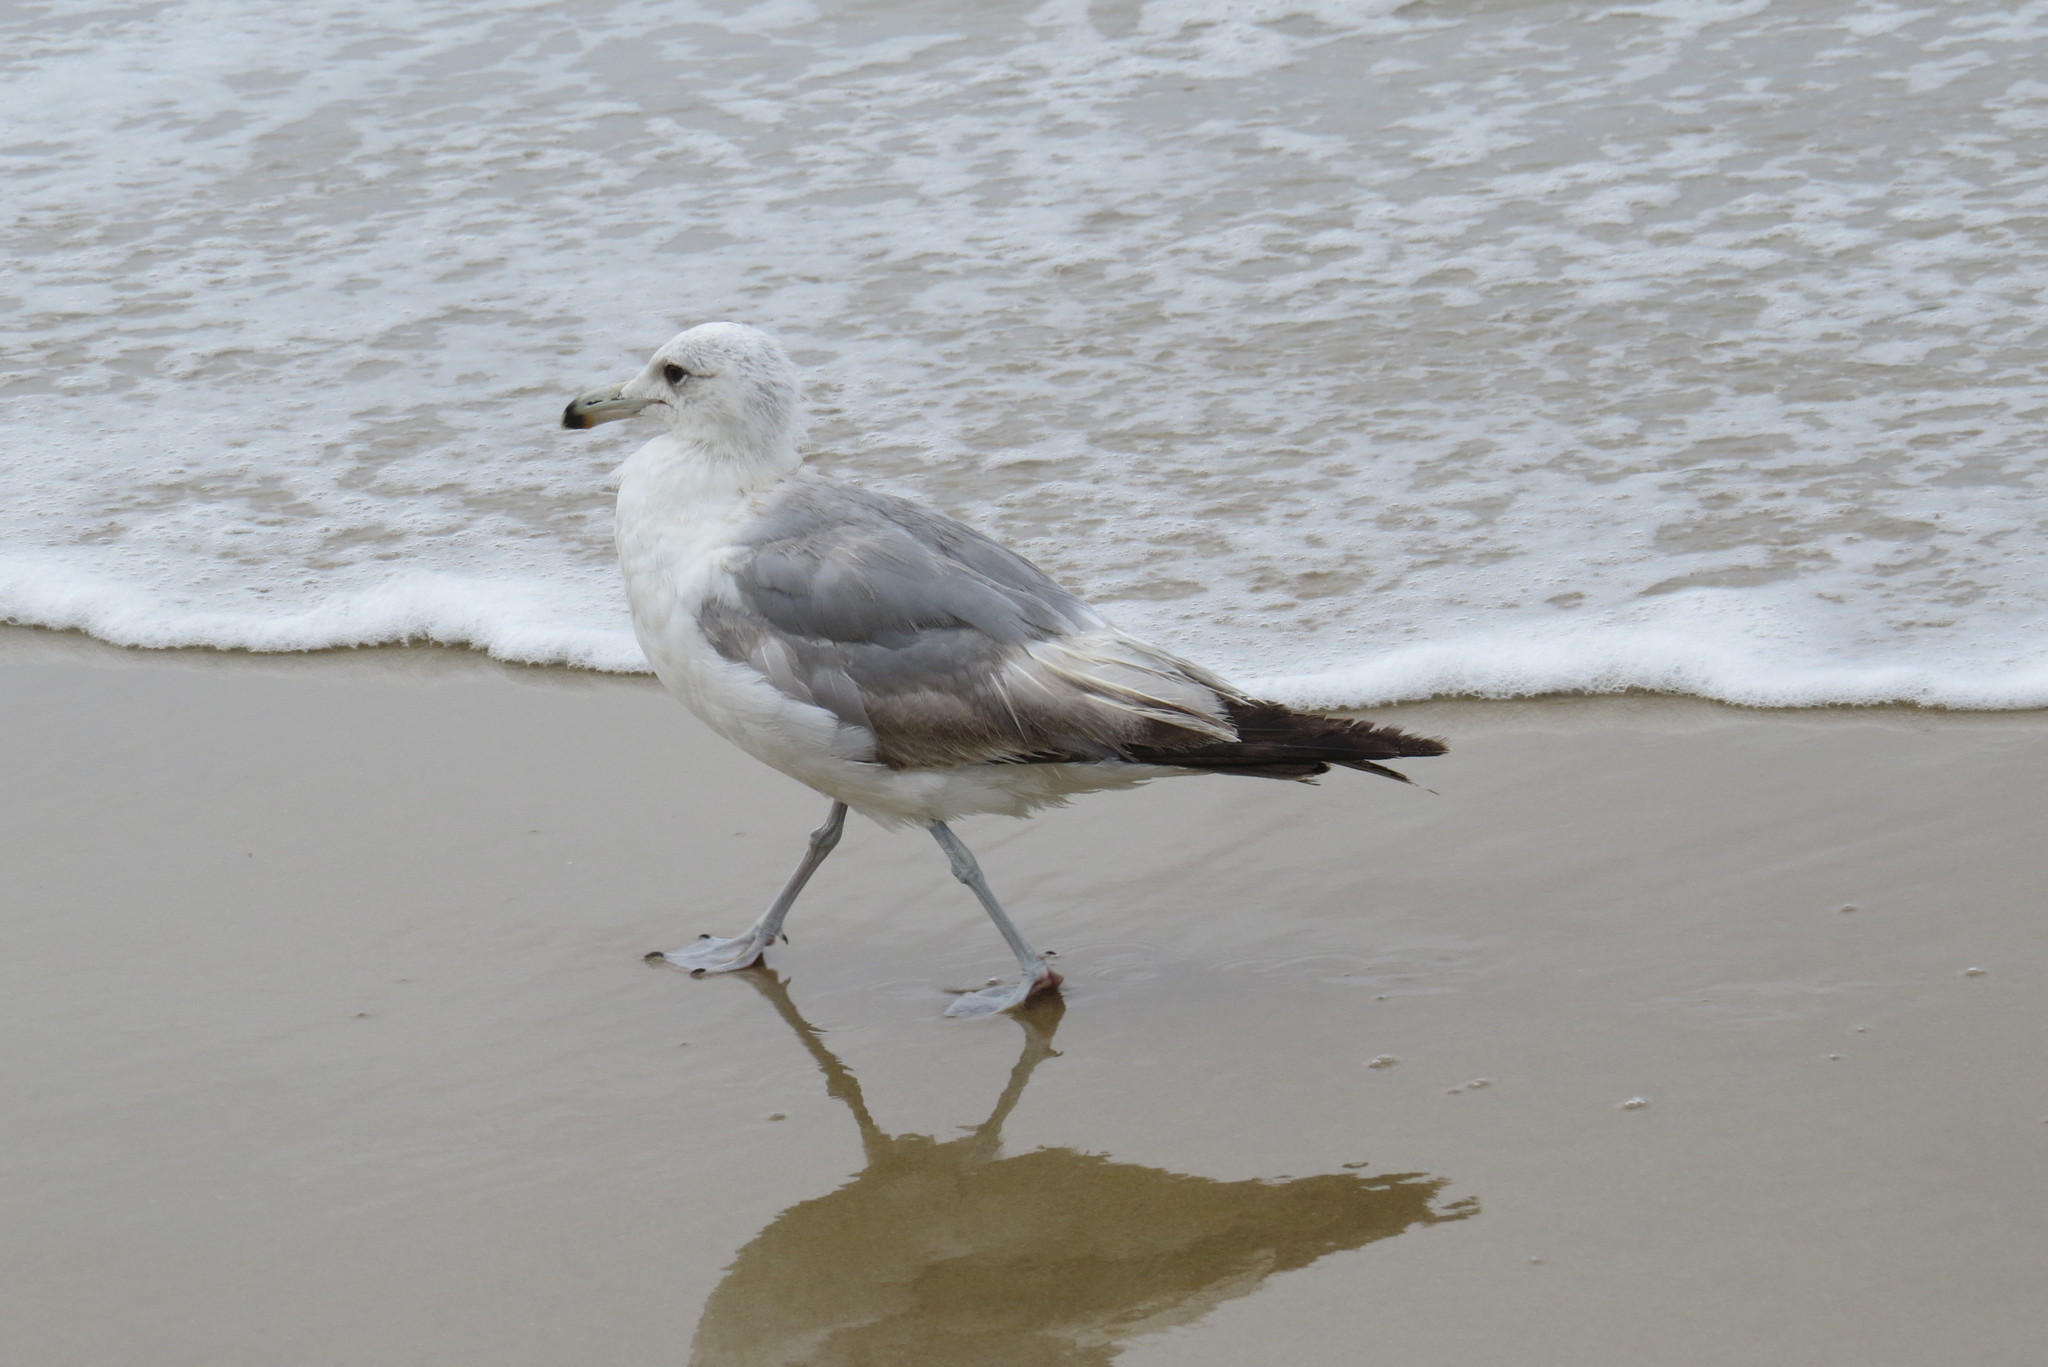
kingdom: Animalia
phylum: Chordata
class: Aves
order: Charadriiformes
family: Laridae
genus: Larus
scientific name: Larus californicus
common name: California gull
